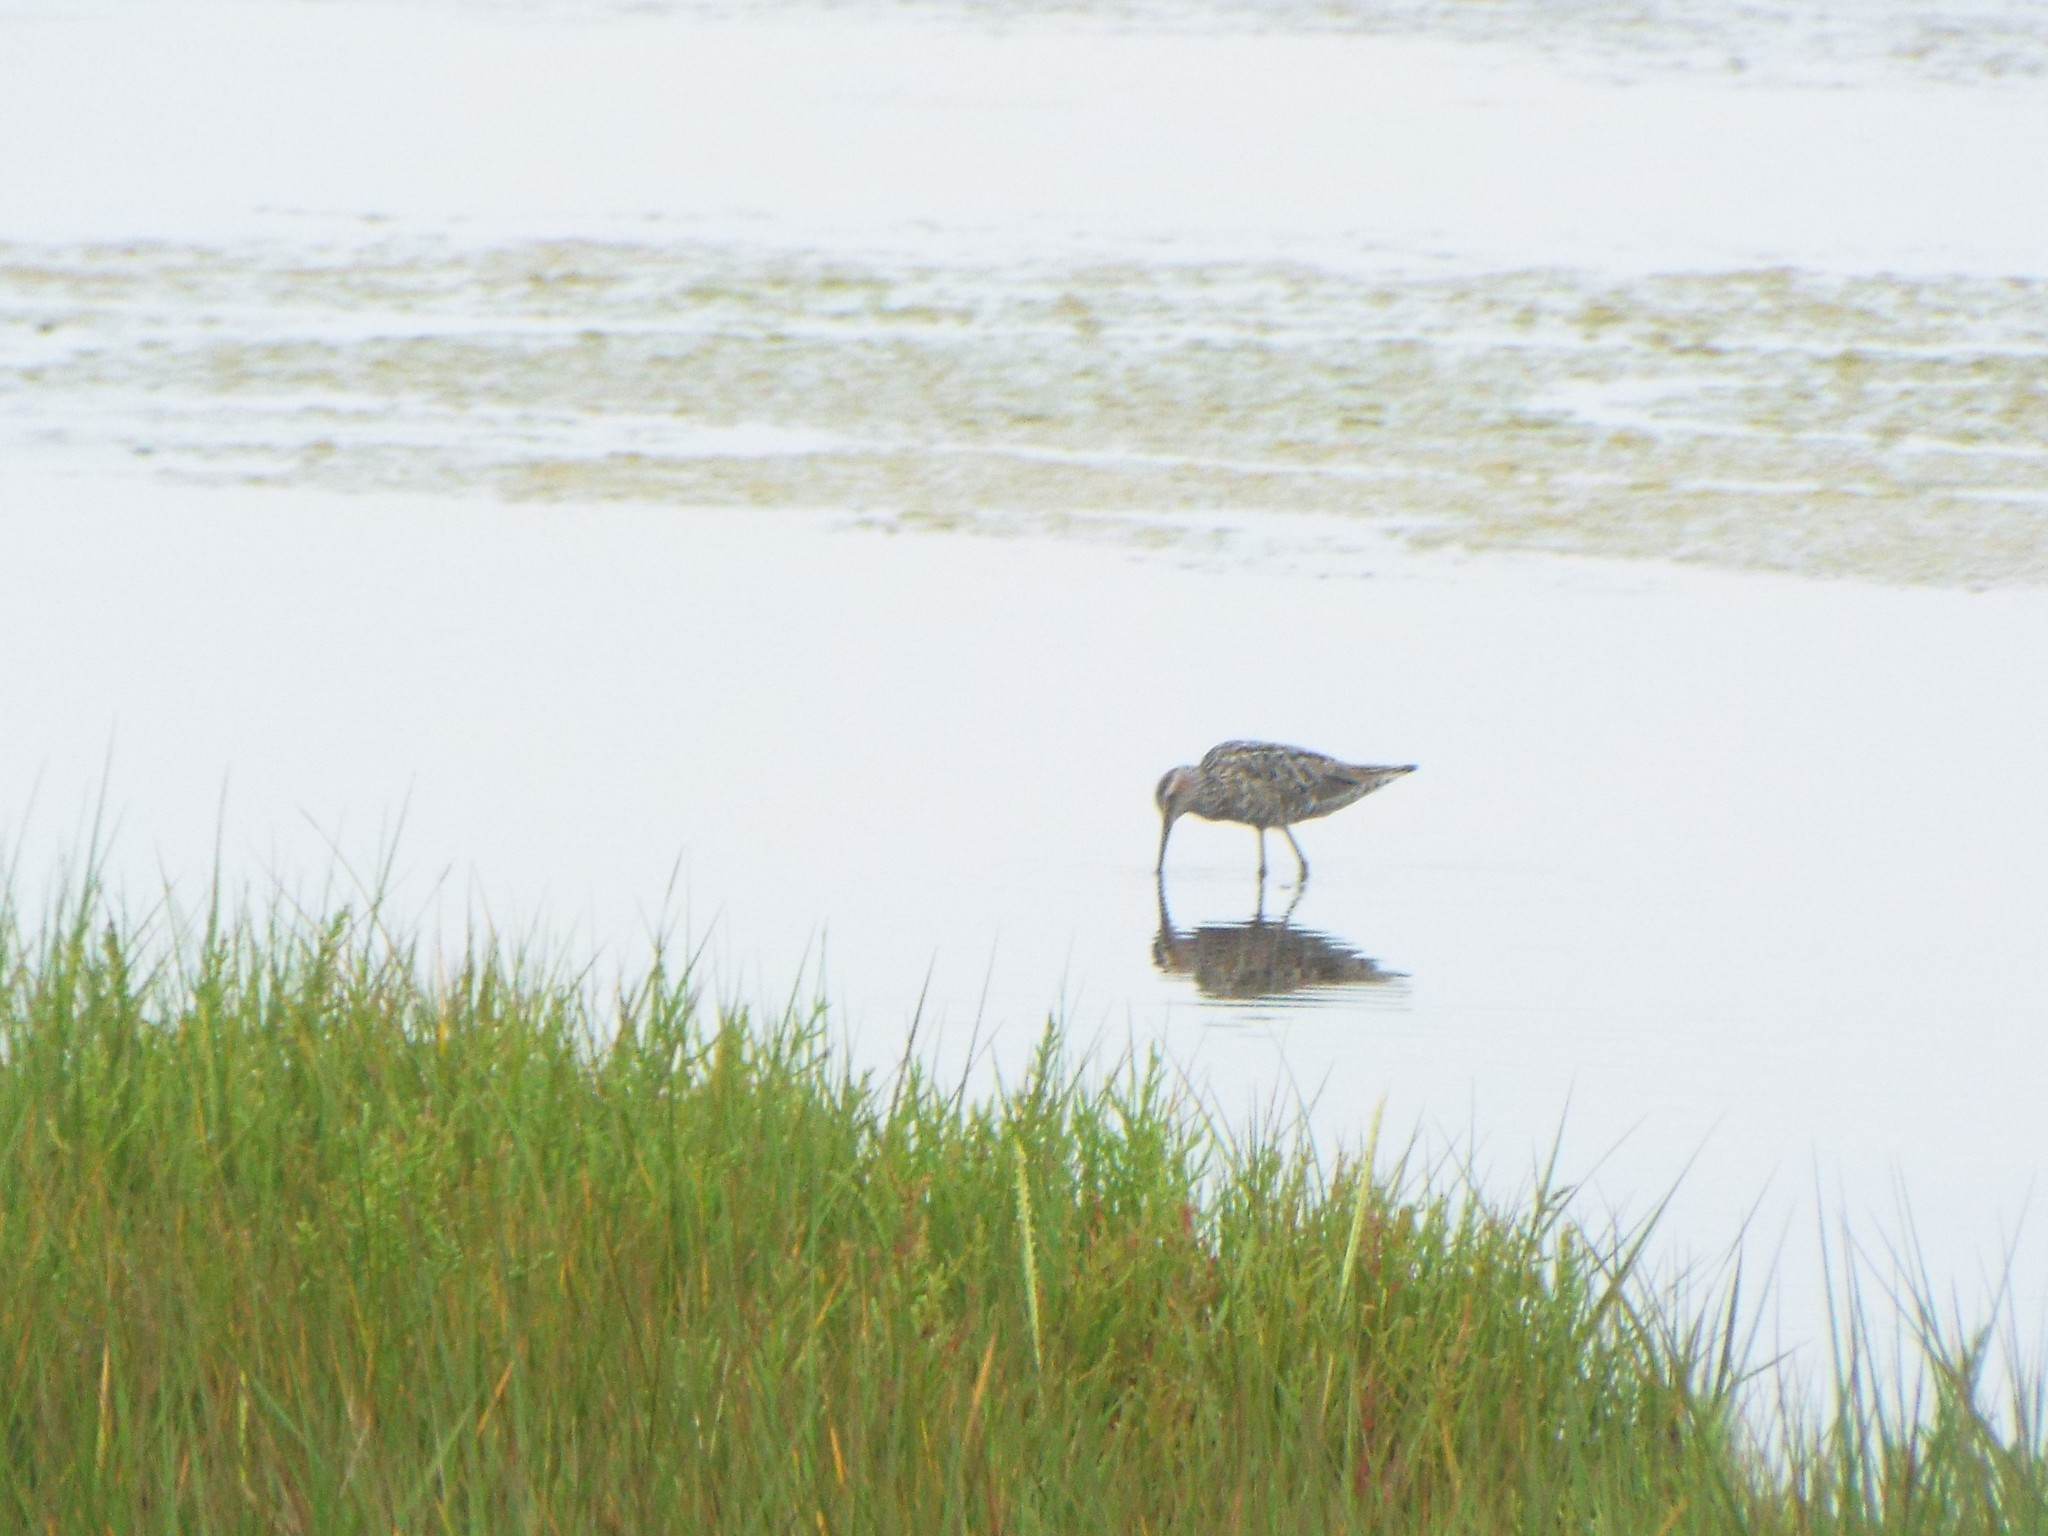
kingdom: Animalia
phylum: Chordata
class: Aves
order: Charadriiformes
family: Scolopacidae
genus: Calidris
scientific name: Calidris himantopus
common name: Stilt sandpiper
